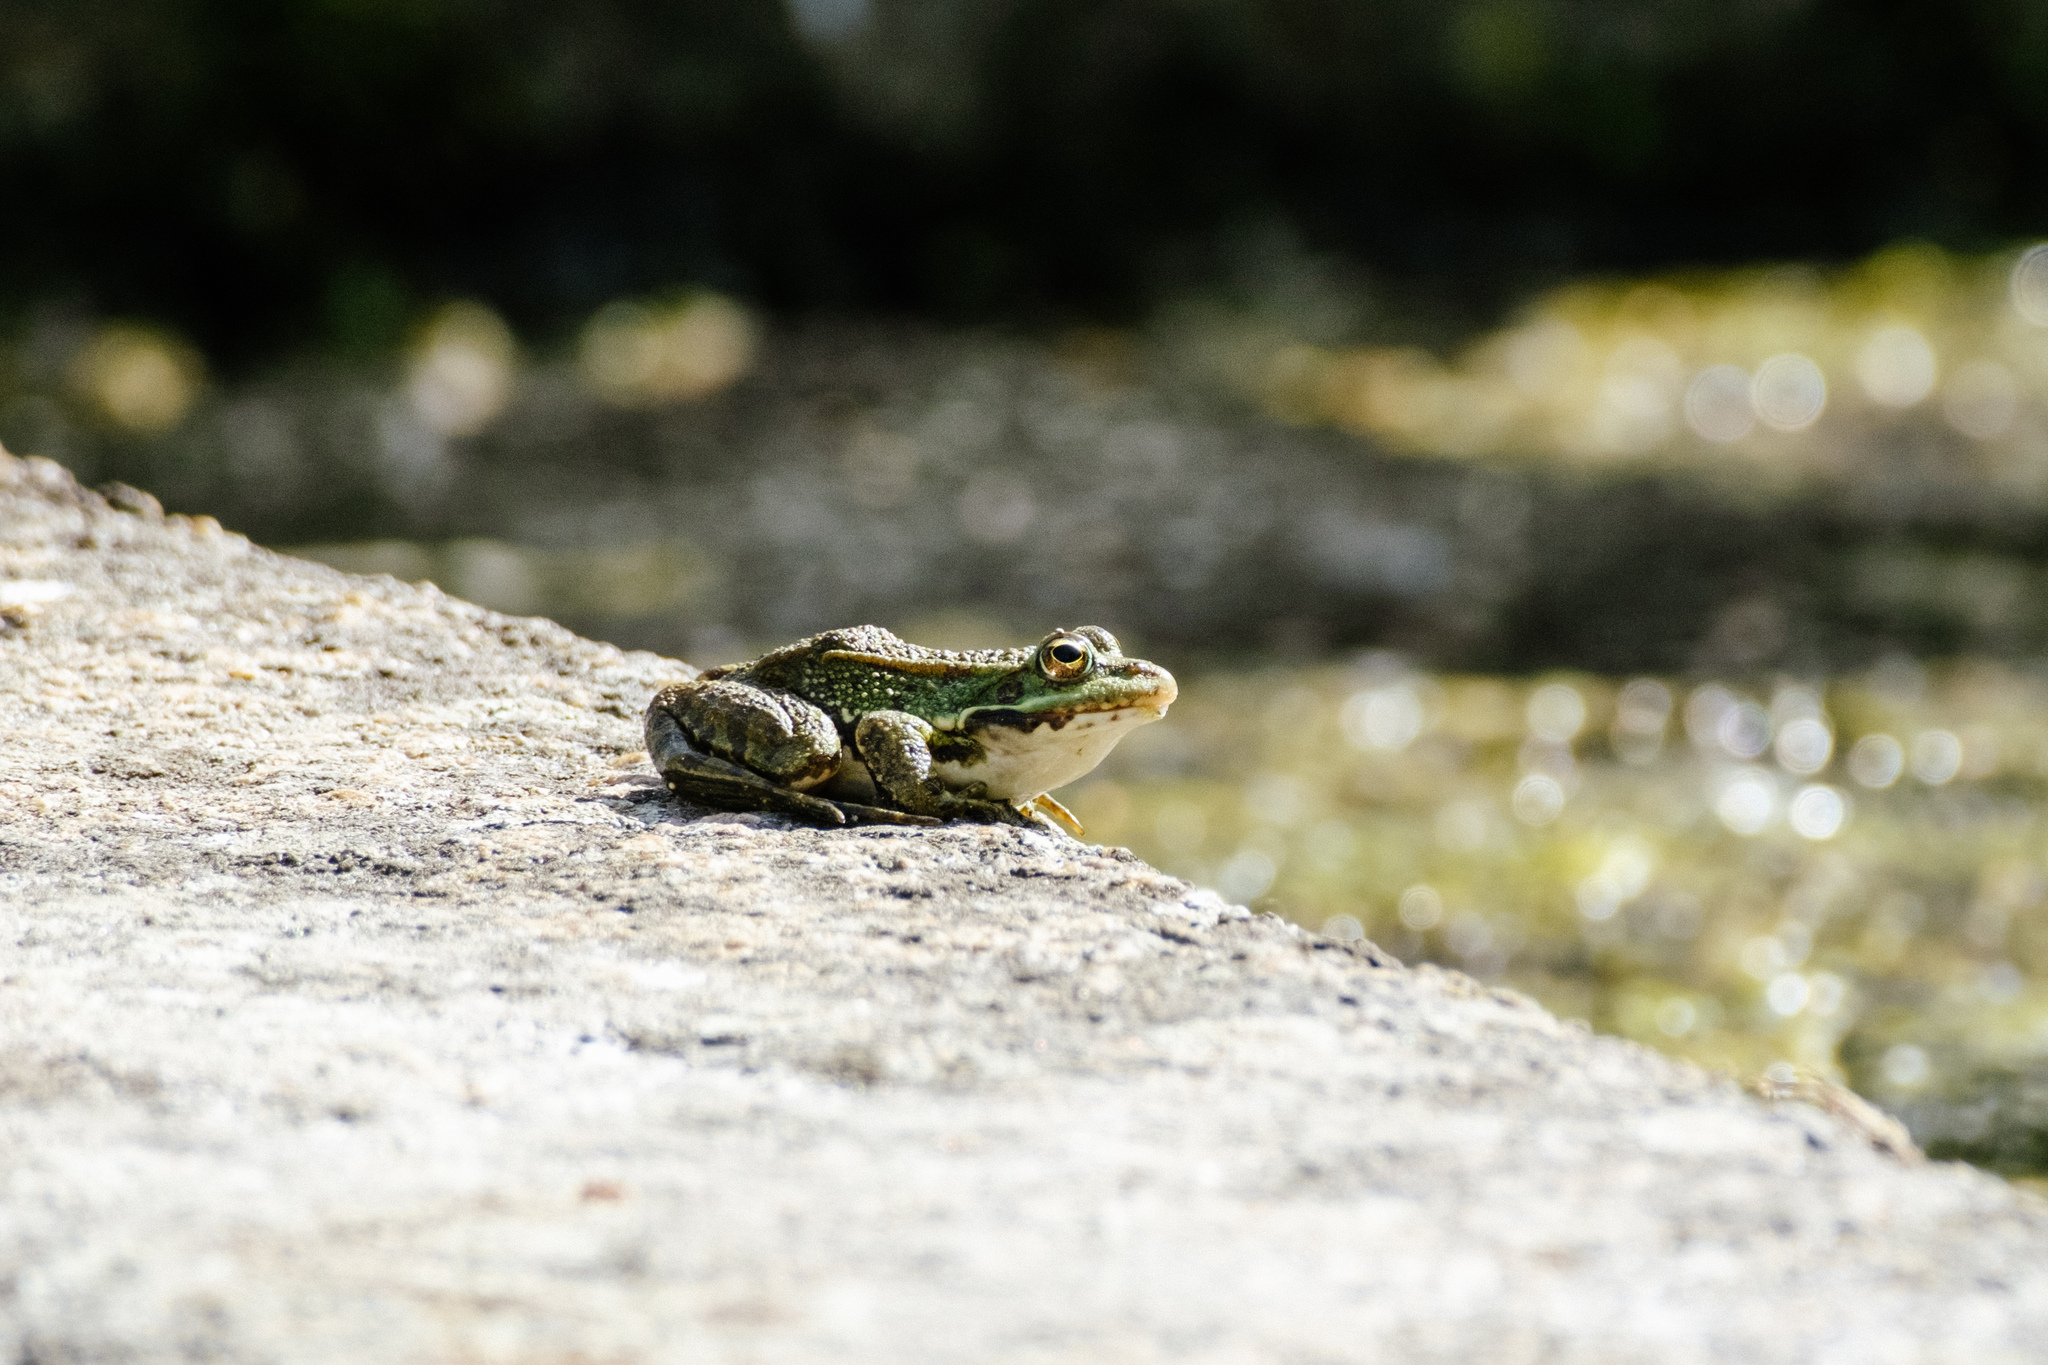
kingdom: Animalia
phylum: Chordata
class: Amphibia
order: Anura
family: Ranidae
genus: Pelophylax
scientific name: Pelophylax perezi
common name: Perez's frog
